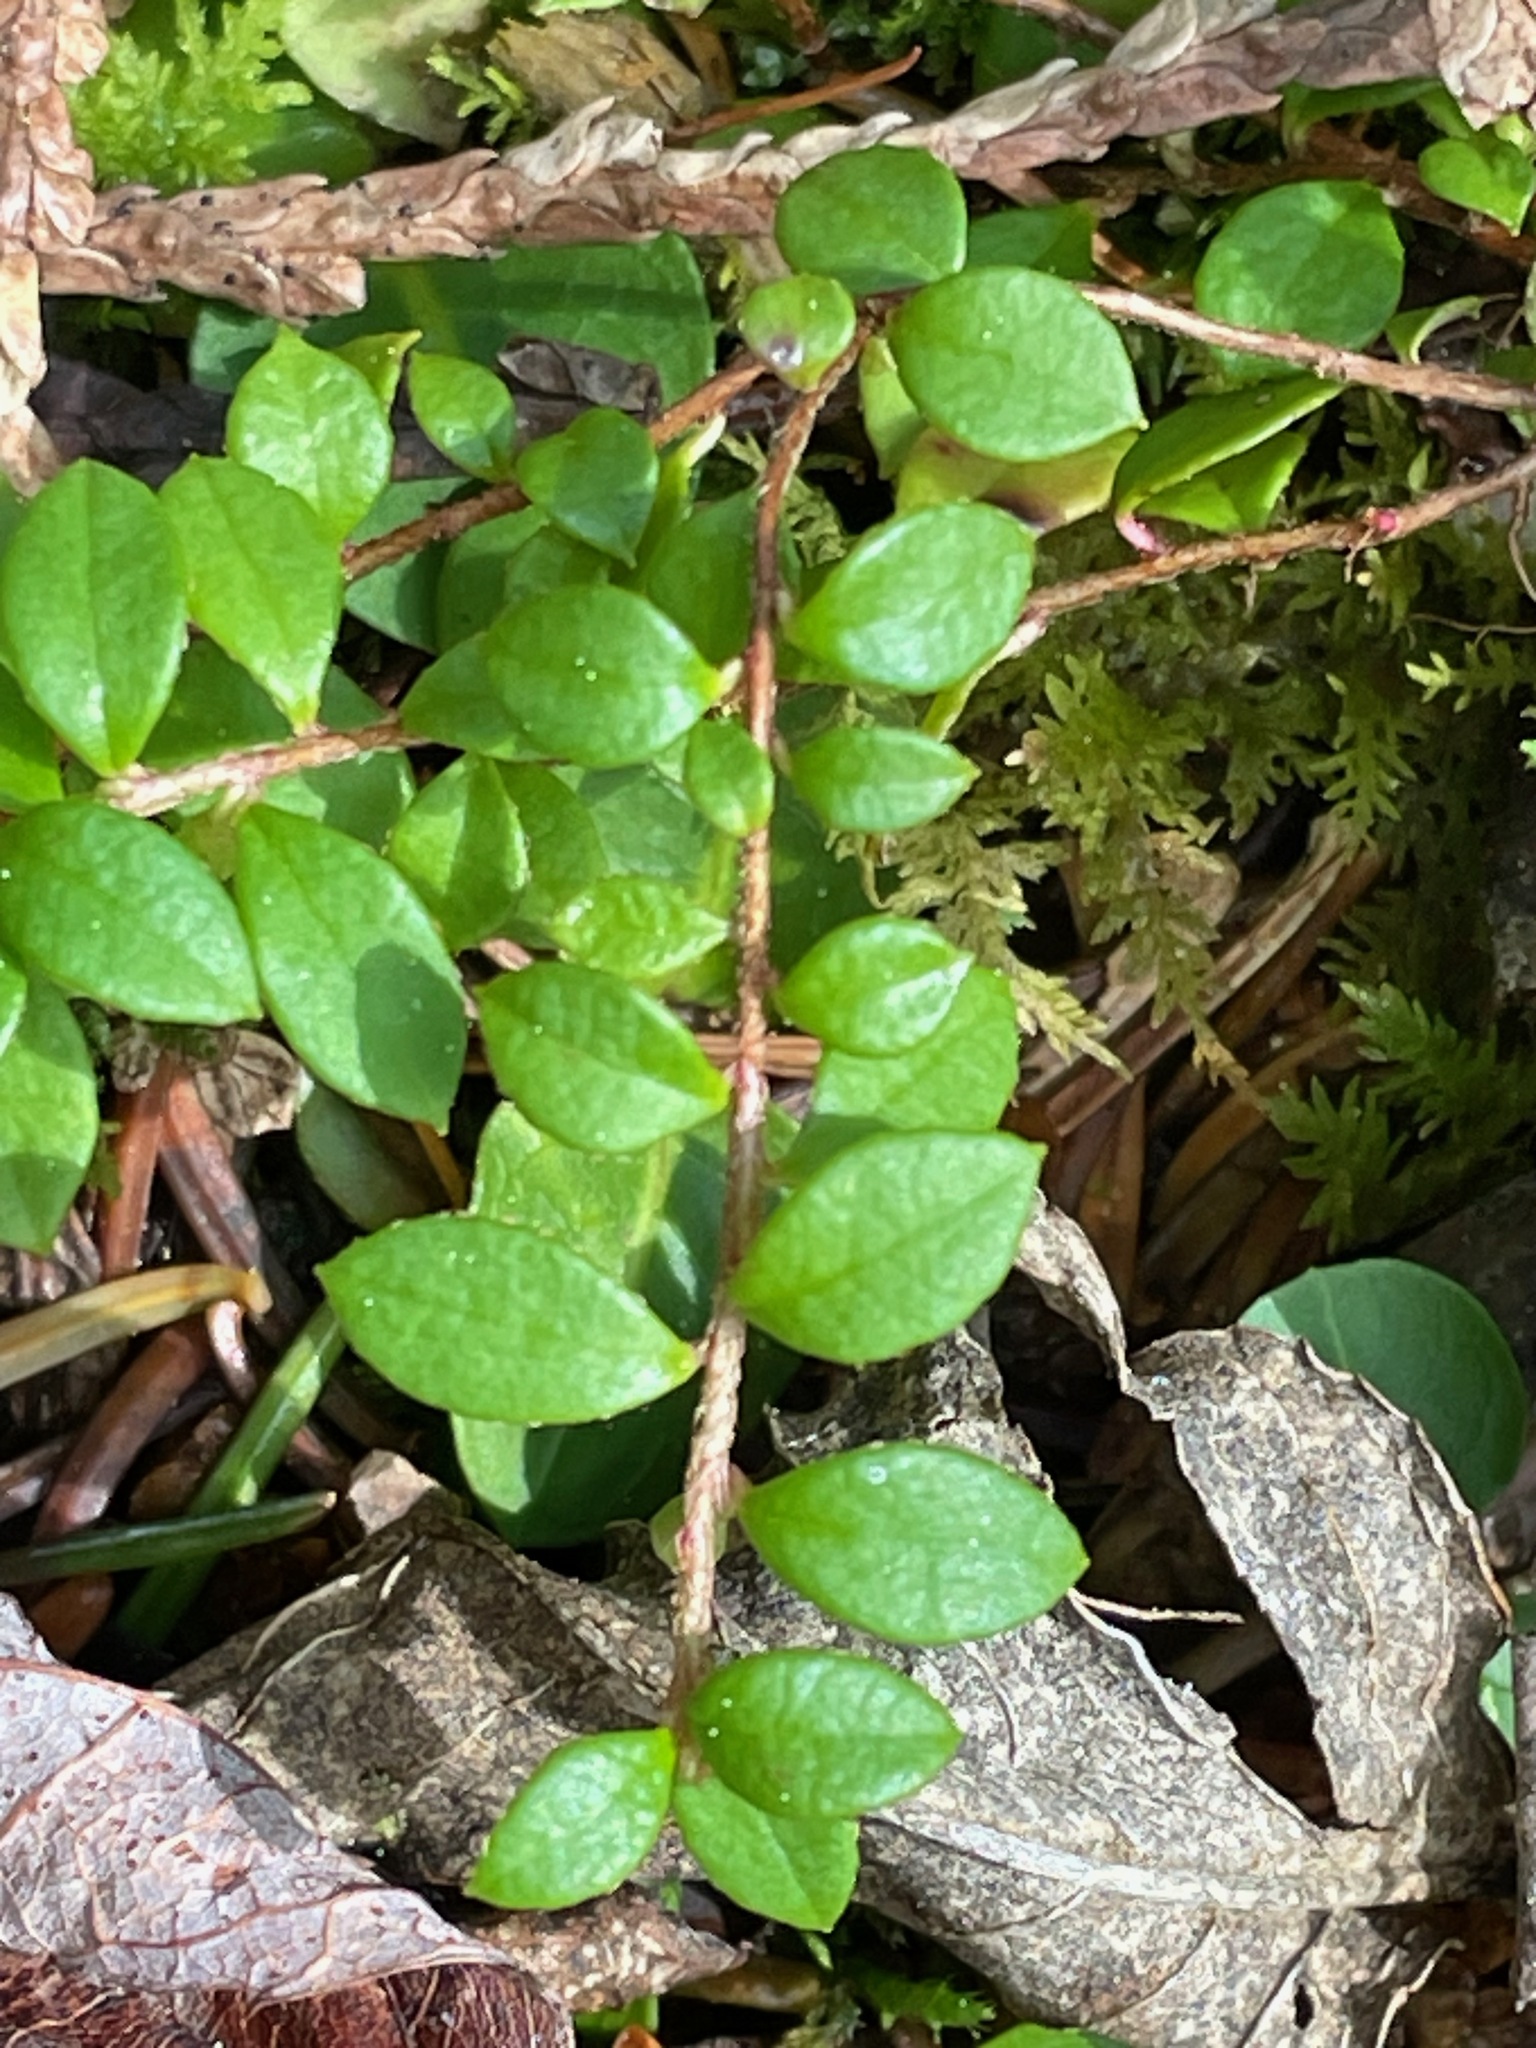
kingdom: Plantae
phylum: Tracheophyta
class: Magnoliopsida
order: Ericales
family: Ericaceae
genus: Gaultheria
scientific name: Gaultheria hispidula
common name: Cancer wintergreen
